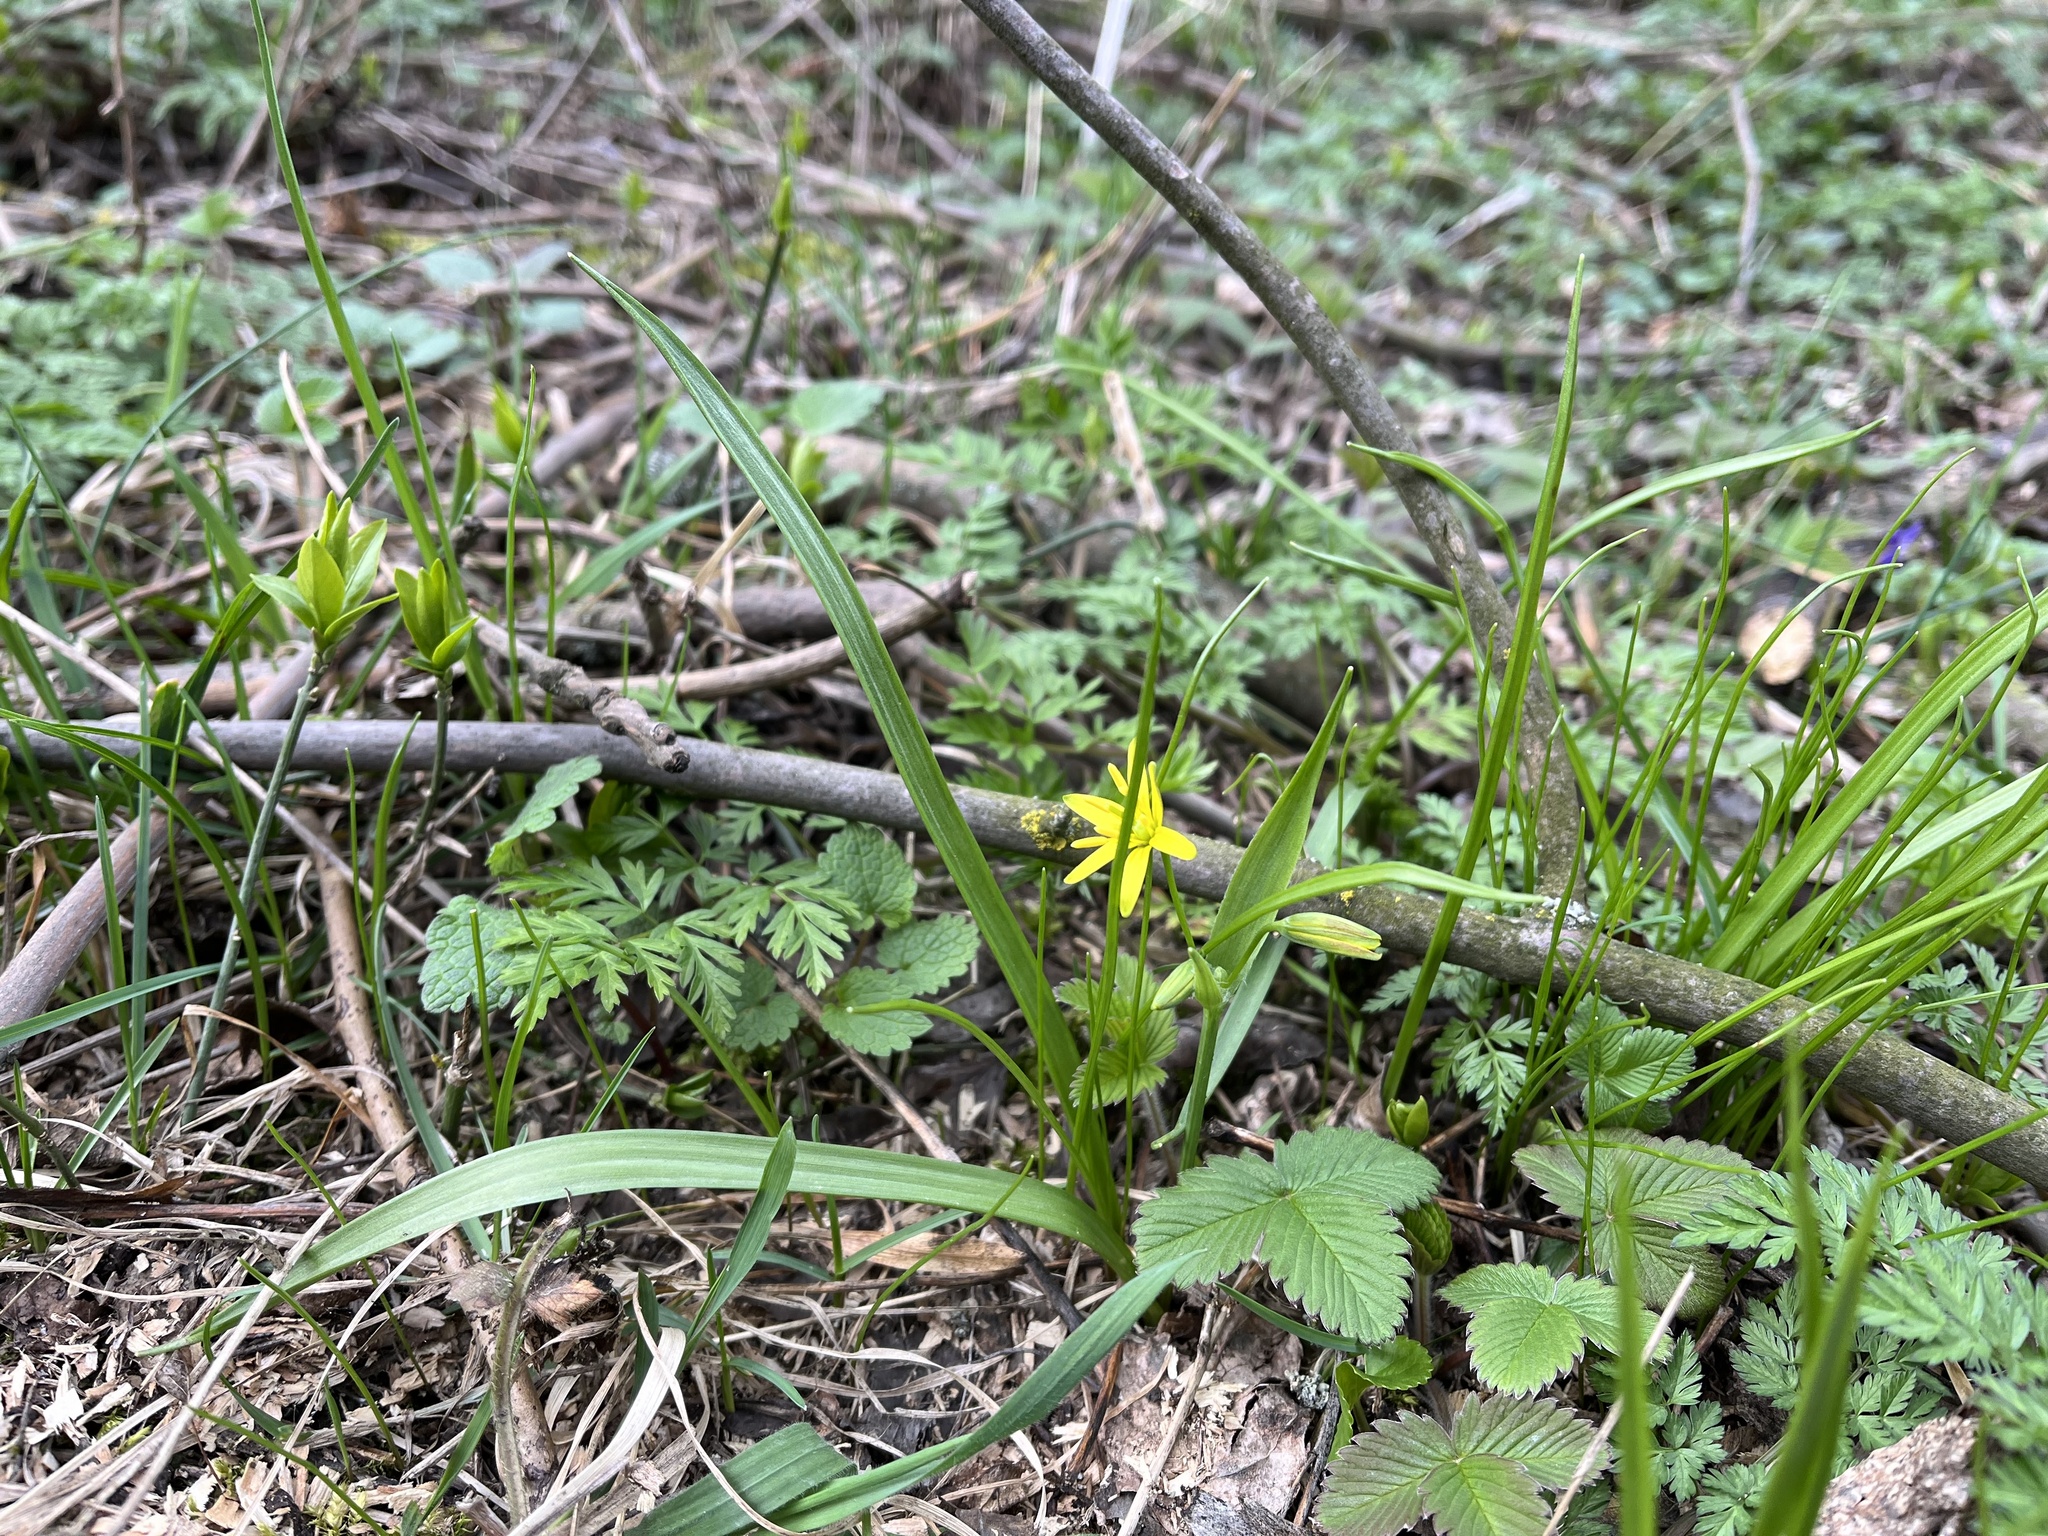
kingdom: Plantae
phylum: Tracheophyta
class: Liliopsida
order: Liliales
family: Liliaceae
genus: Gagea
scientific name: Gagea lutea
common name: Yellow star-of-bethlehem
